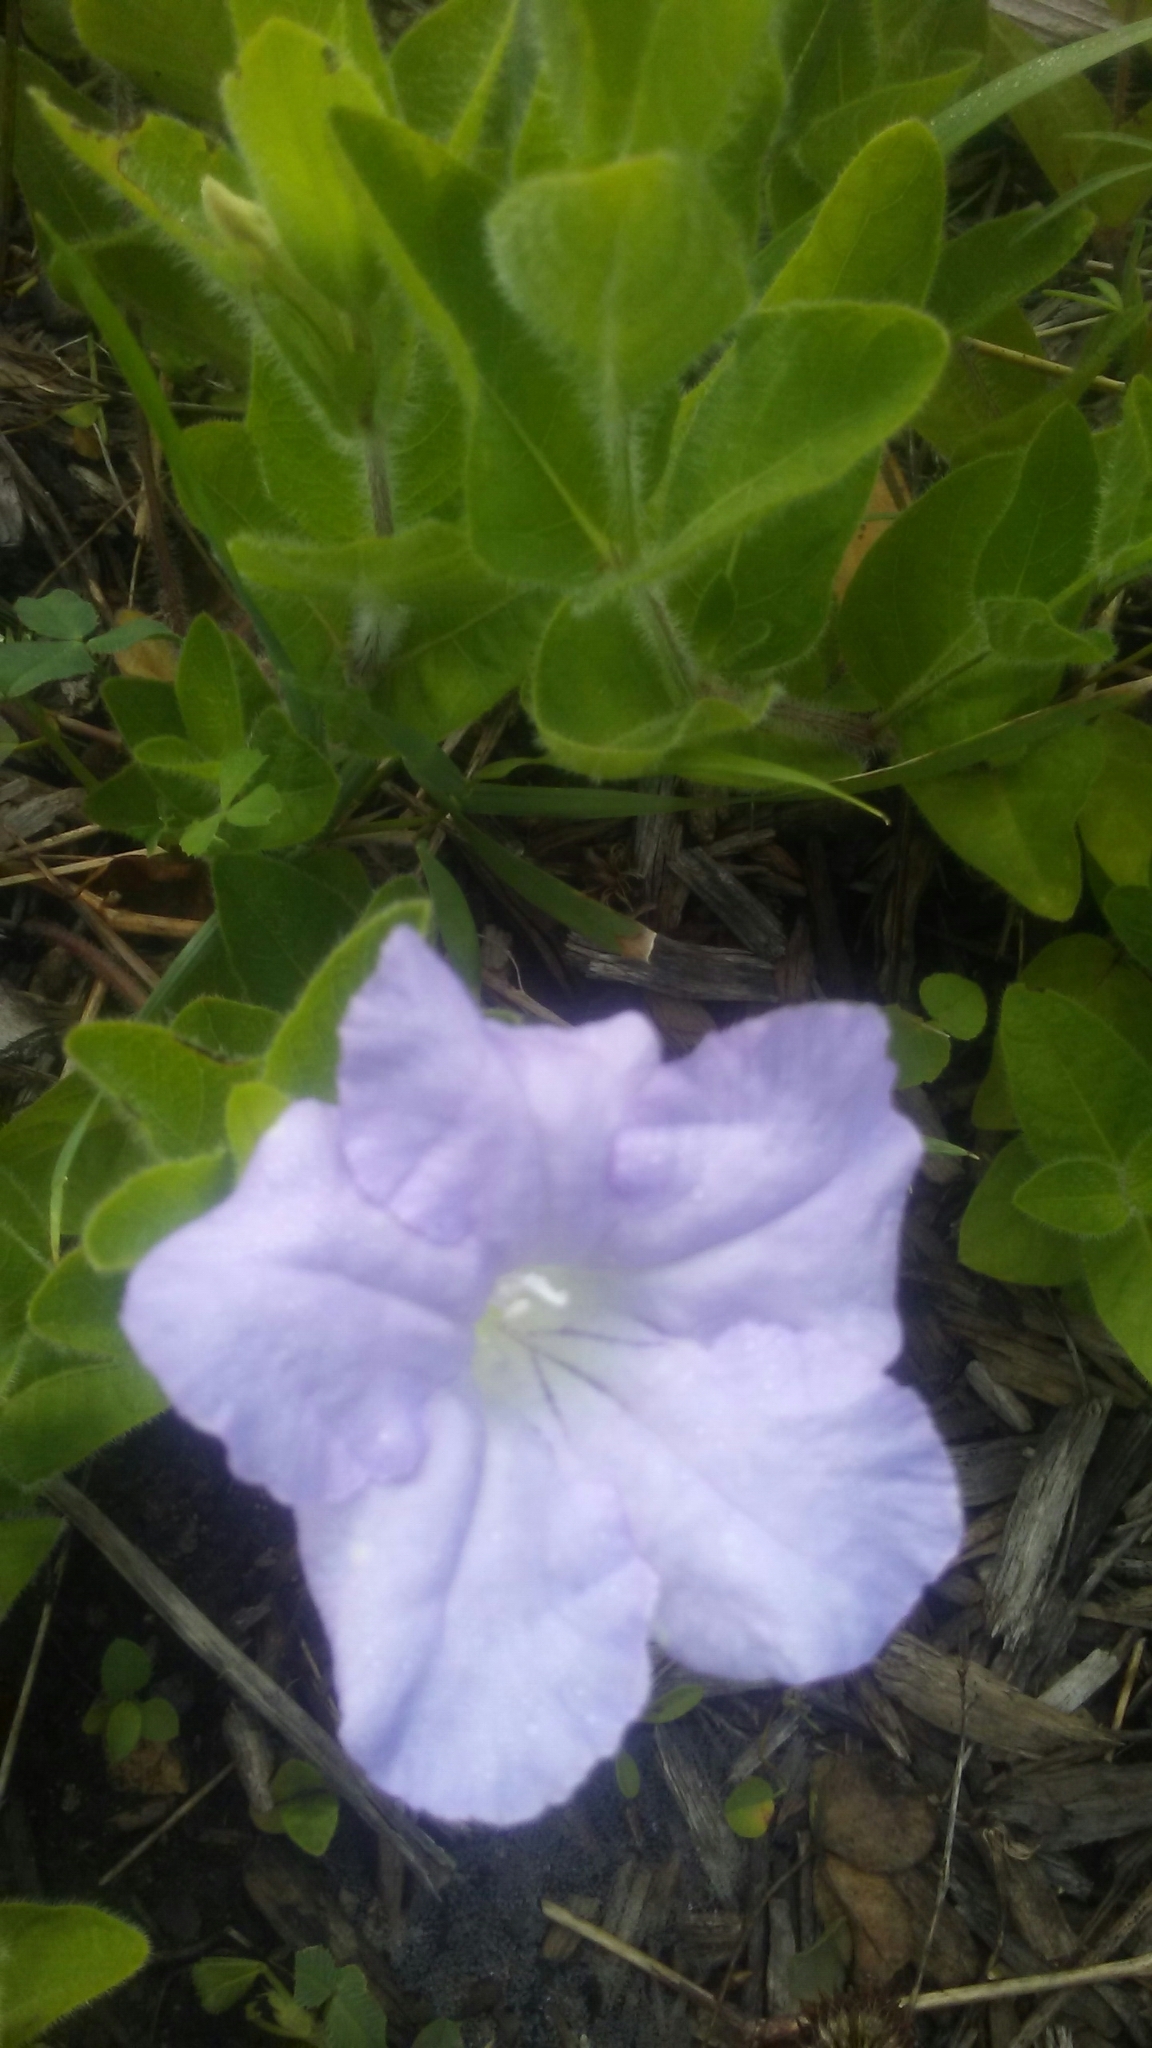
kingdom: Plantae
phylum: Tracheophyta
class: Magnoliopsida
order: Lamiales
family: Acanthaceae
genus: Ruellia
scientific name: Ruellia humilis
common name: Fringe-leaf ruellia
